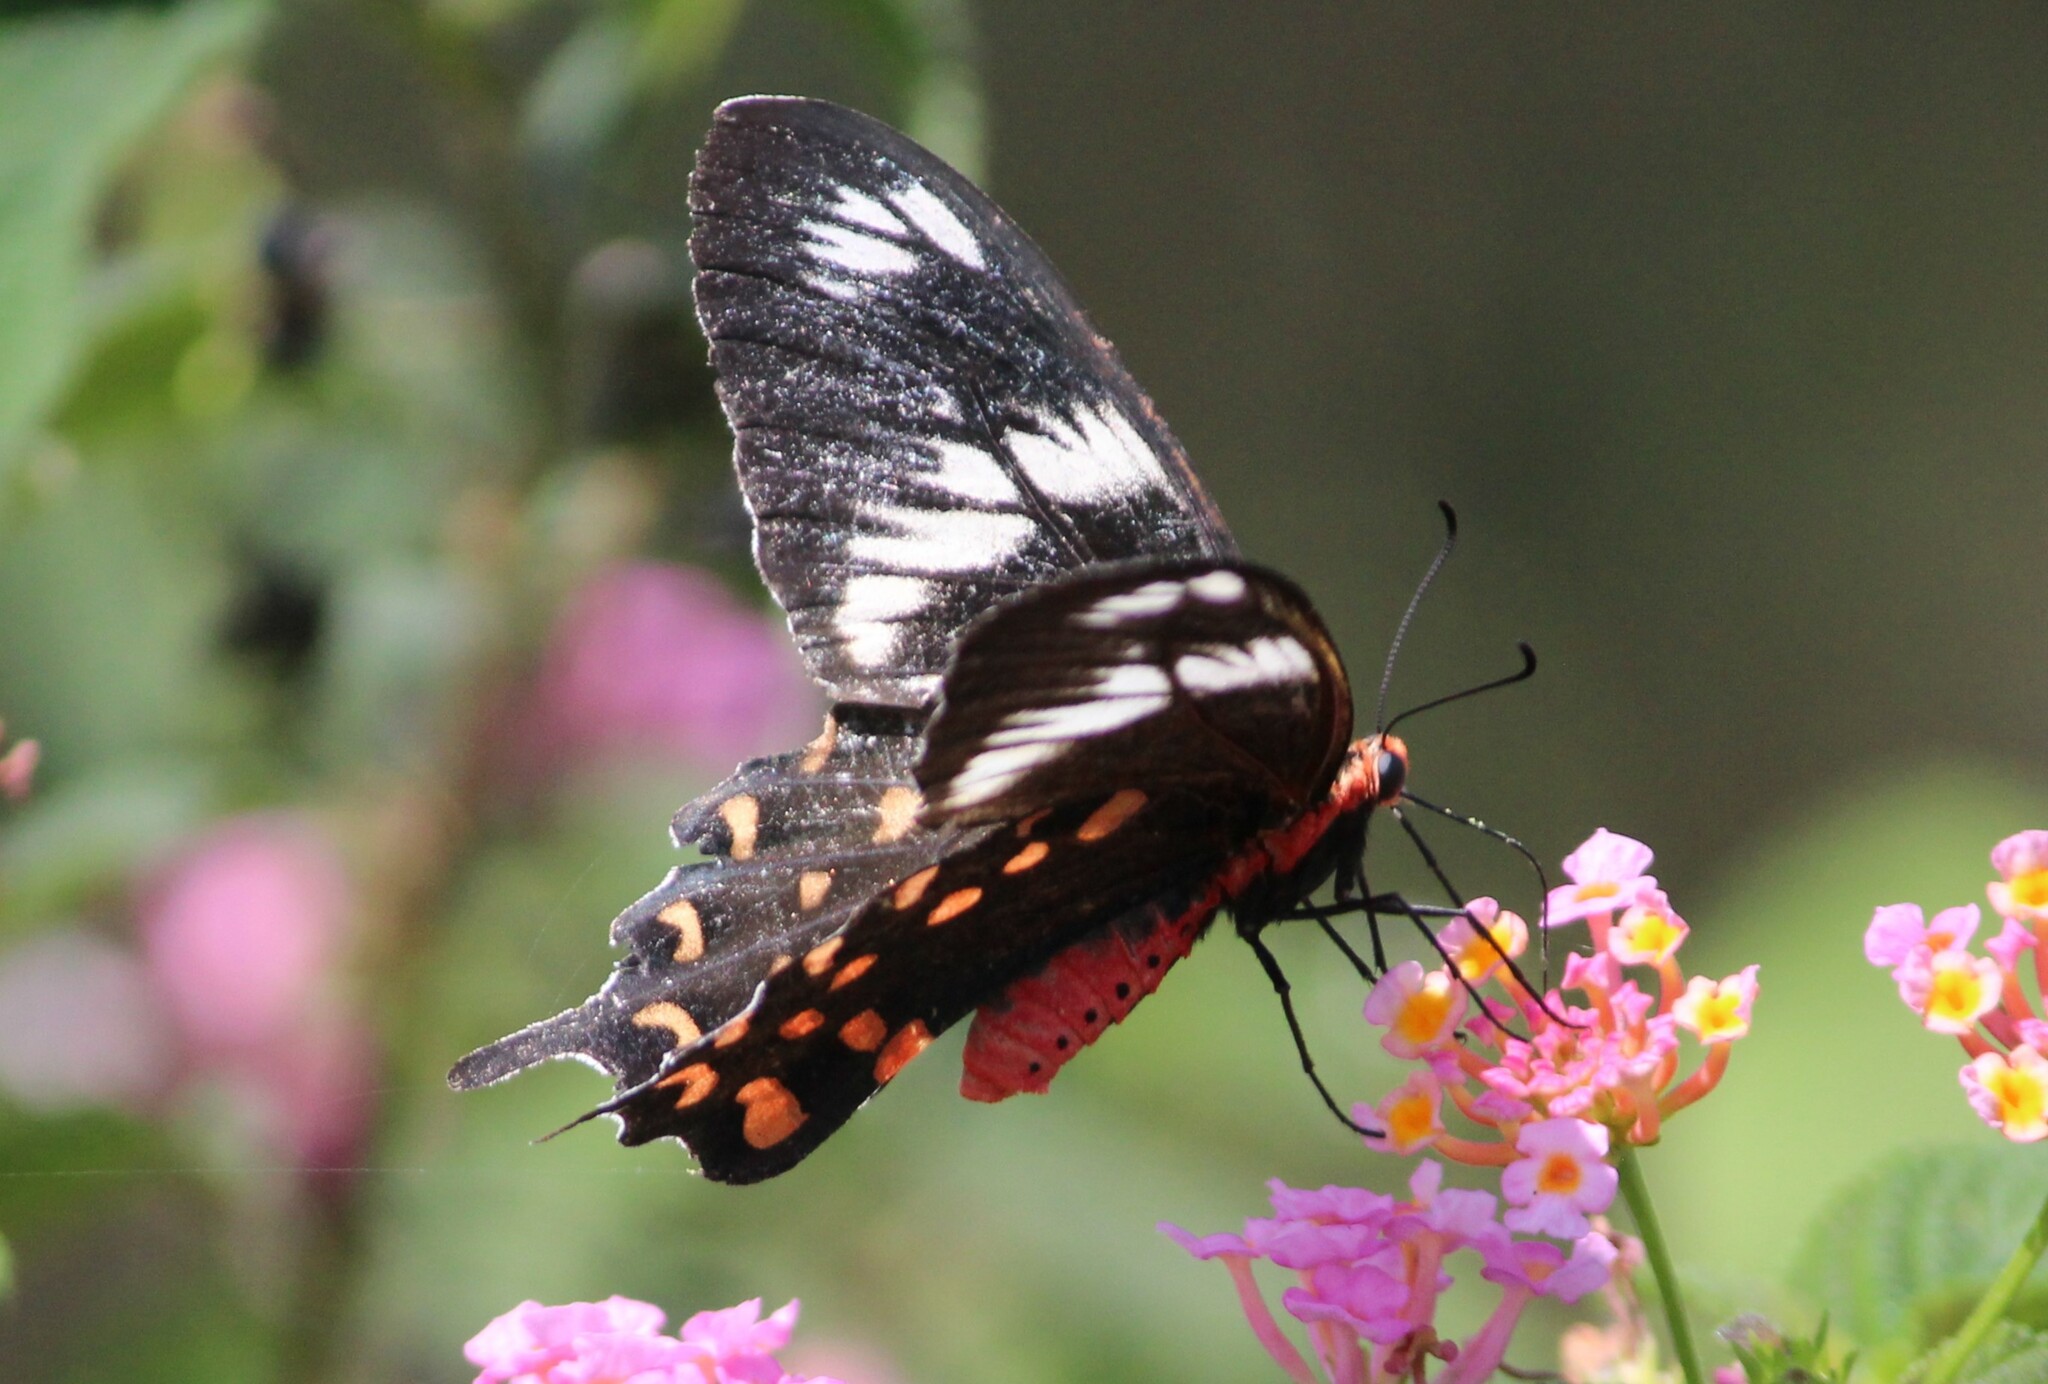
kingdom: Animalia
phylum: Arthropoda
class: Insecta
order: Lepidoptera
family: Papilionidae
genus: Pachliopta
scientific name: Pachliopta hector
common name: Crimson rose
